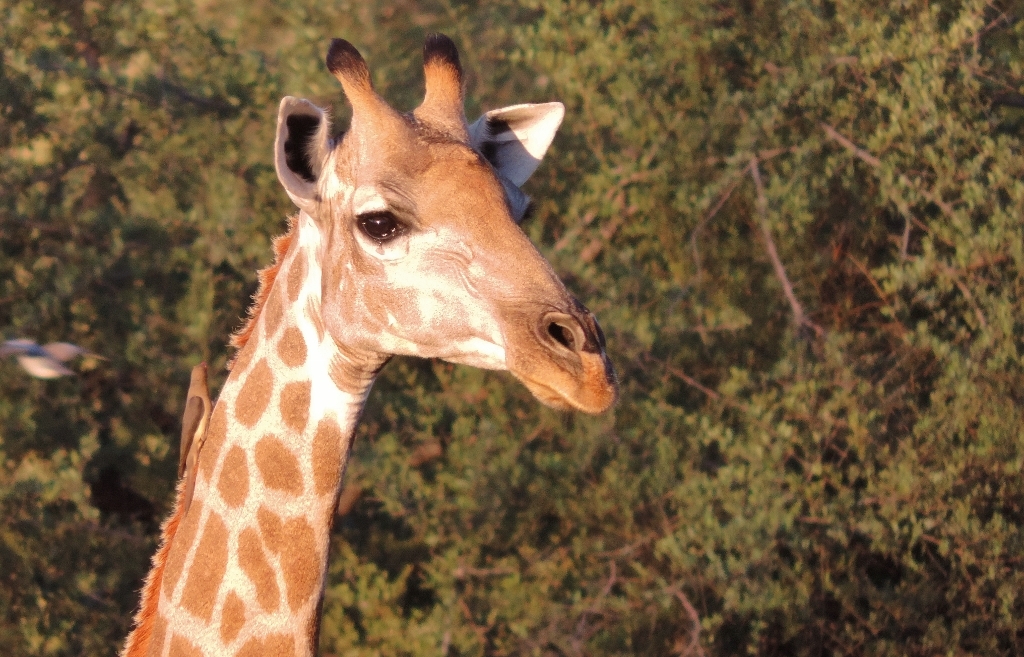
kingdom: Animalia
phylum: Chordata
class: Mammalia
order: Artiodactyla
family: Giraffidae
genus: Giraffa
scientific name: Giraffa giraffa
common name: Southern giraffe
